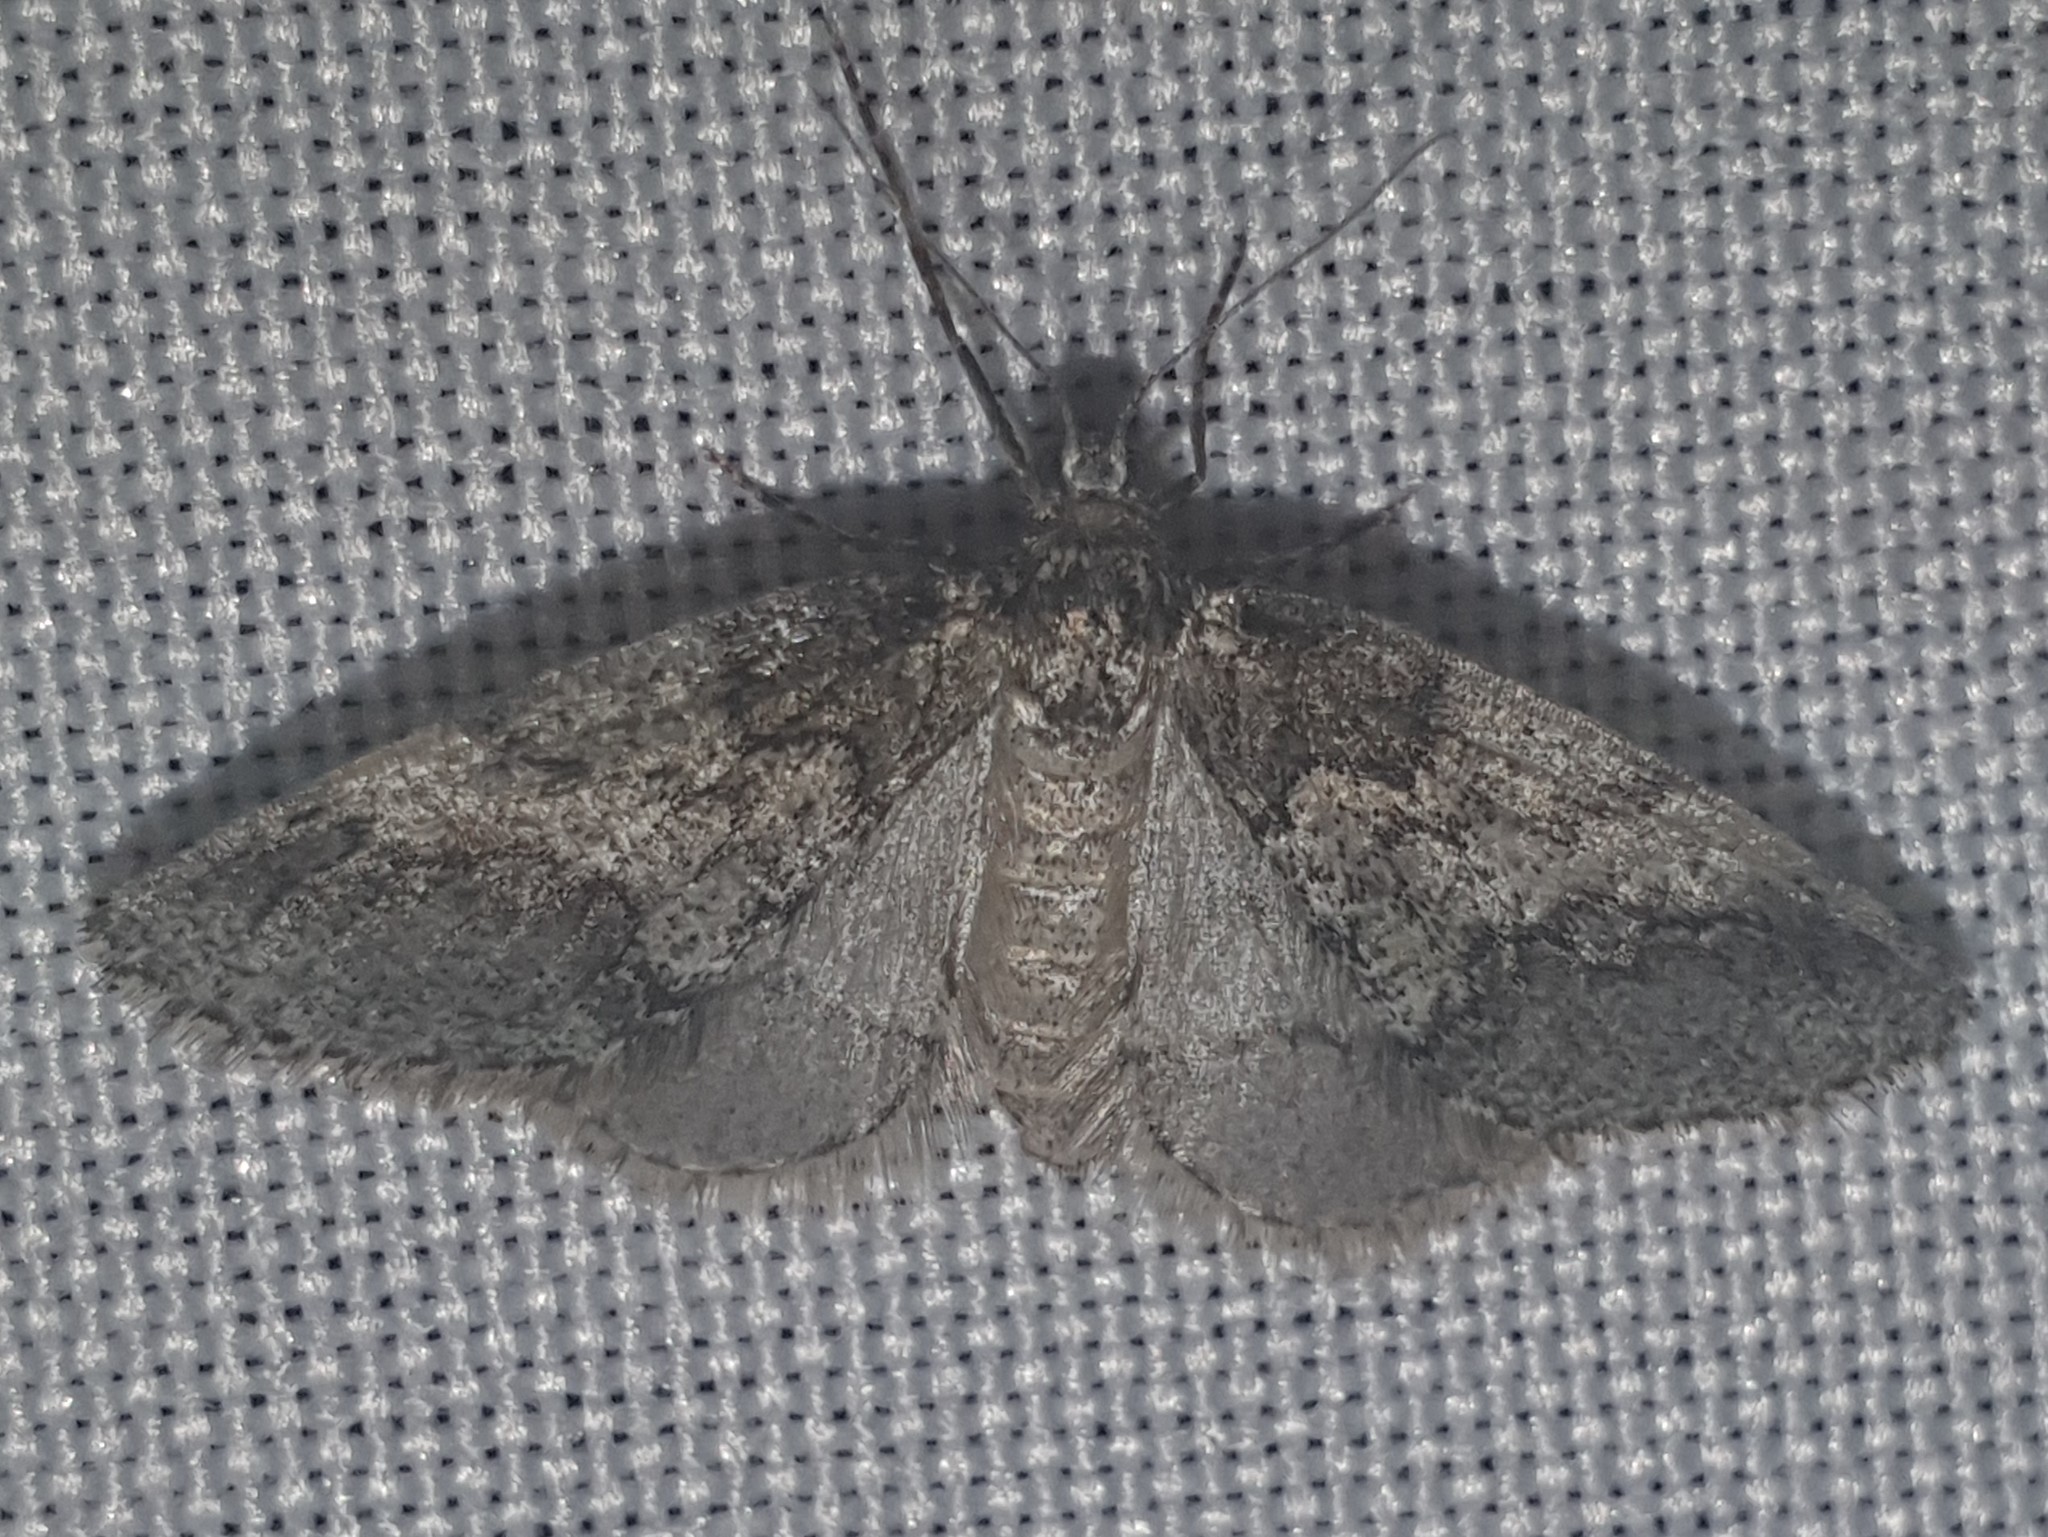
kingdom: Animalia
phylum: Arthropoda
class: Insecta
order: Lepidoptera
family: Geometridae
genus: Tephronia
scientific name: Tephronia lhommaria
